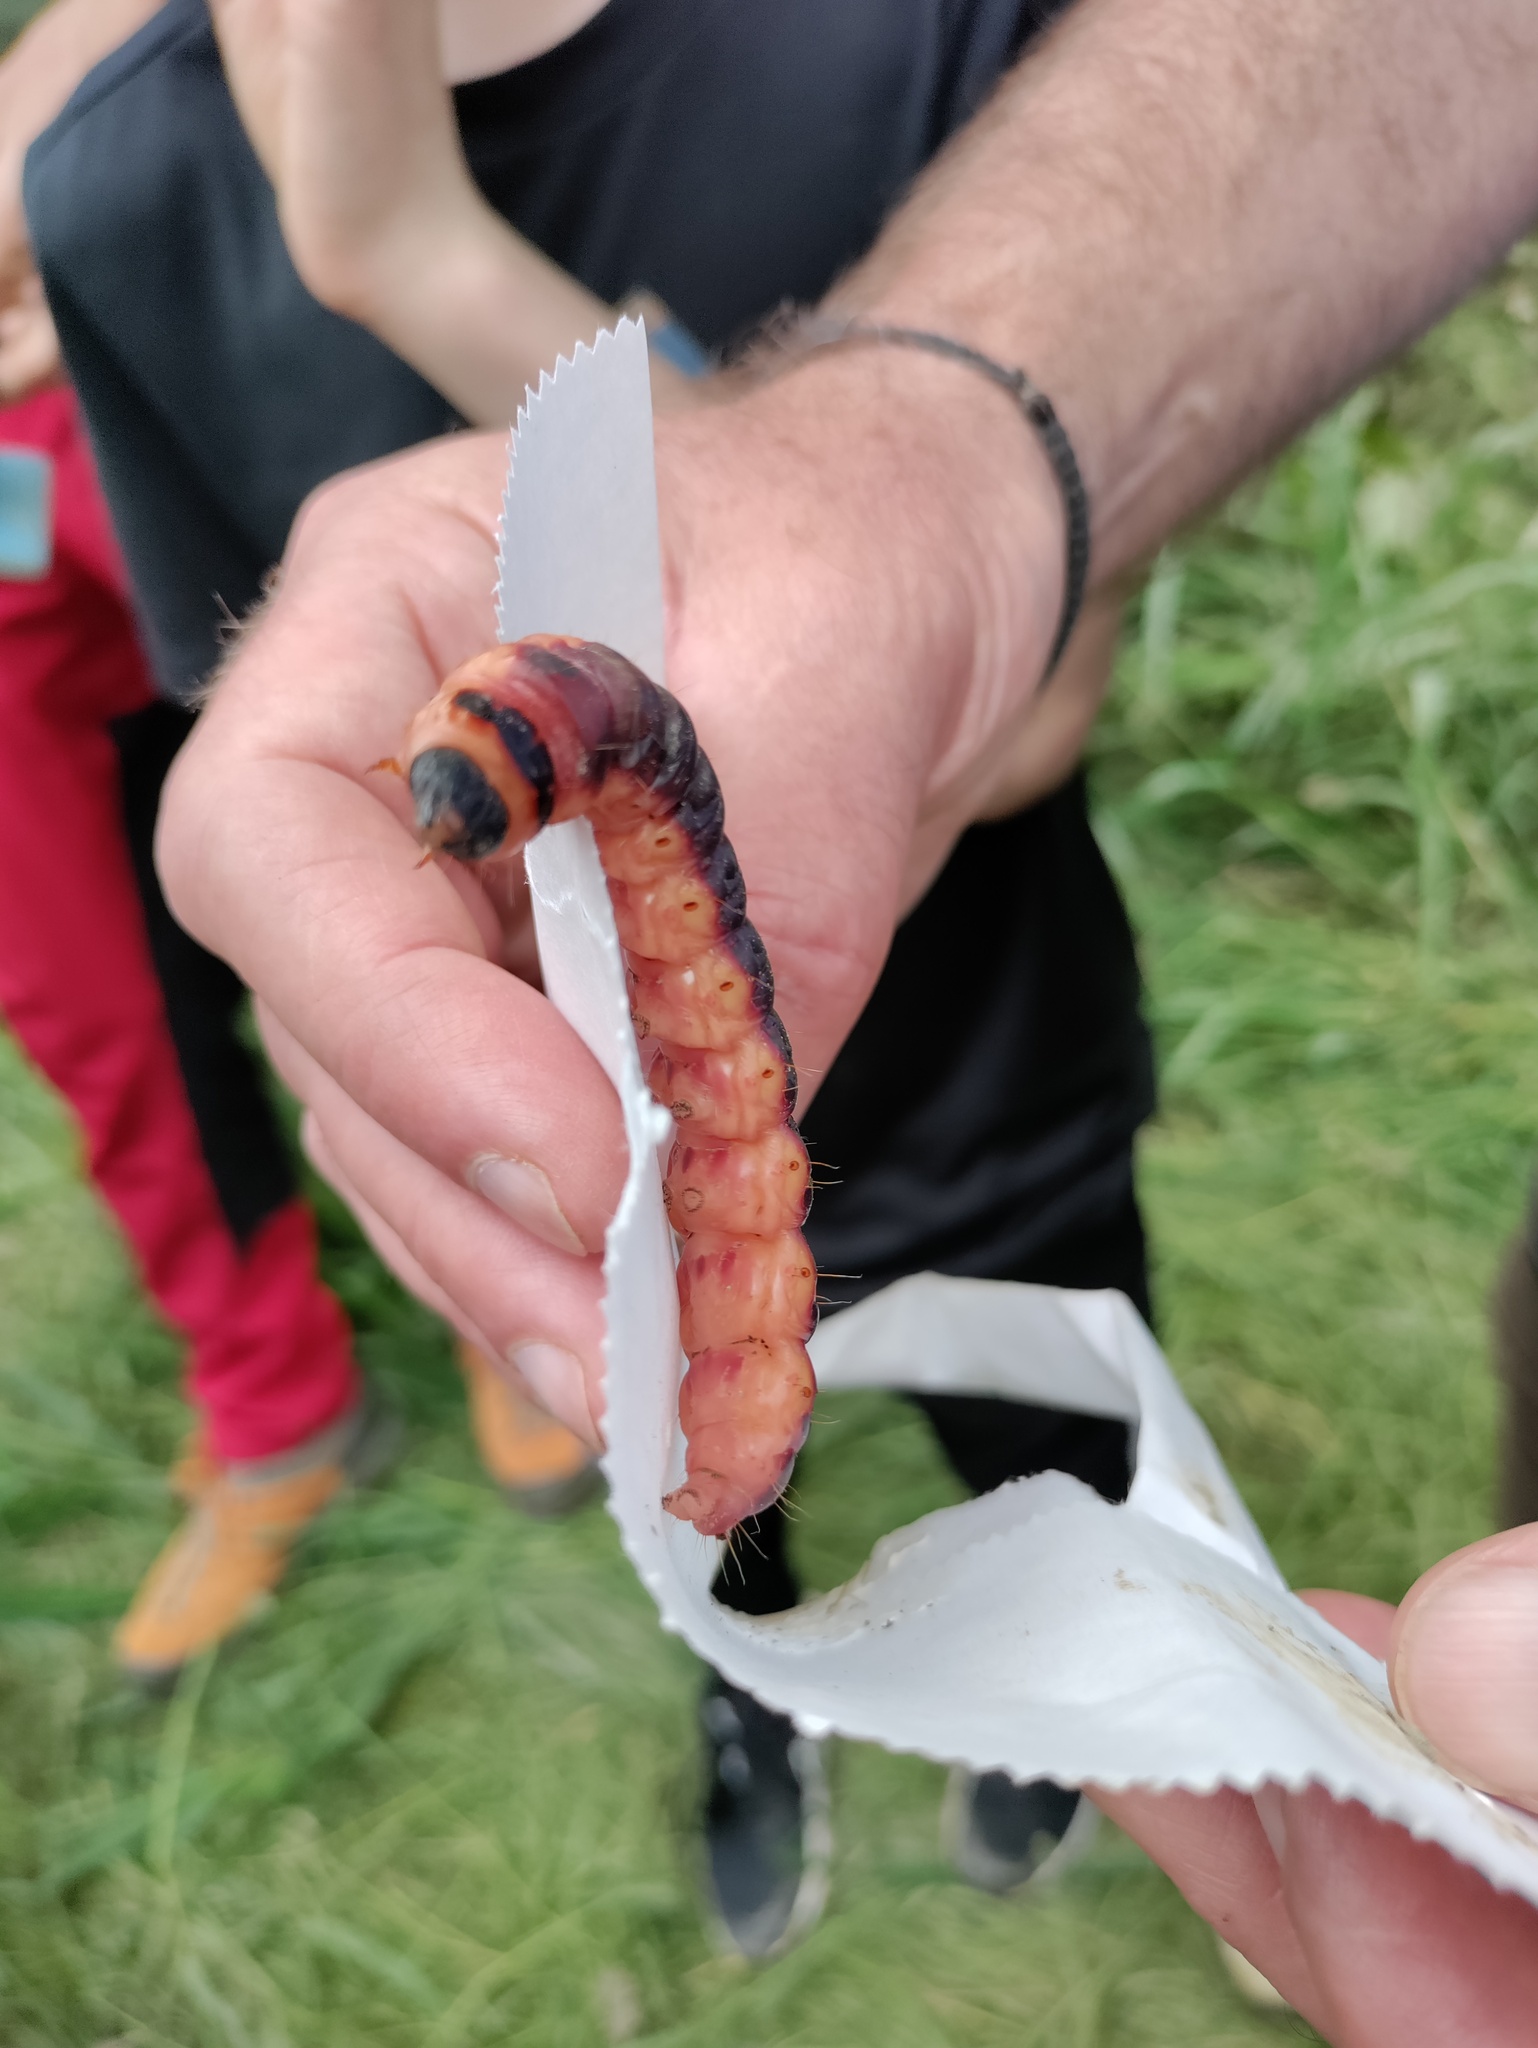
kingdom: Animalia
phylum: Arthropoda
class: Insecta
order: Lepidoptera
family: Cossidae
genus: Cossus
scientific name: Cossus cossus
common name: Goat moth
